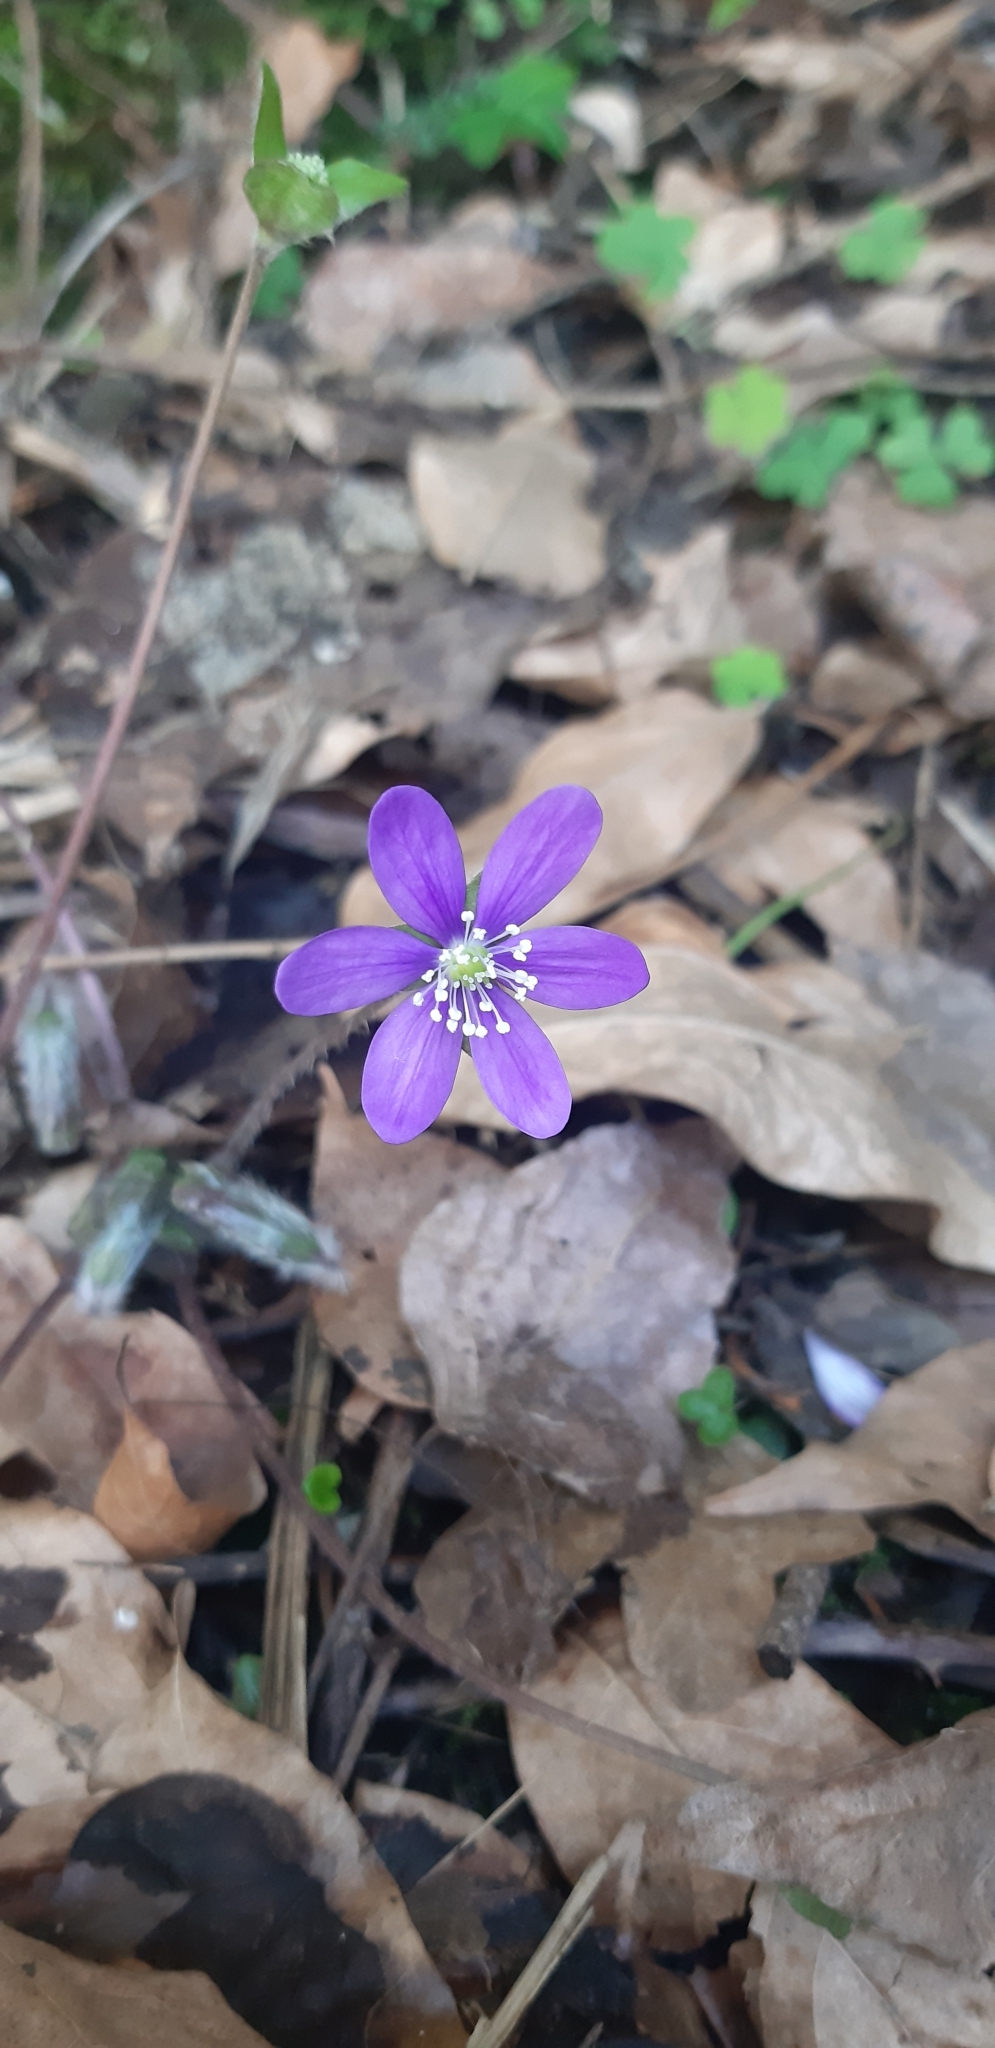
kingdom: Plantae
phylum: Tracheophyta
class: Magnoliopsida
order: Ranunculales
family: Ranunculaceae
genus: Hepatica
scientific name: Hepatica nobilis
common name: Liverleaf
